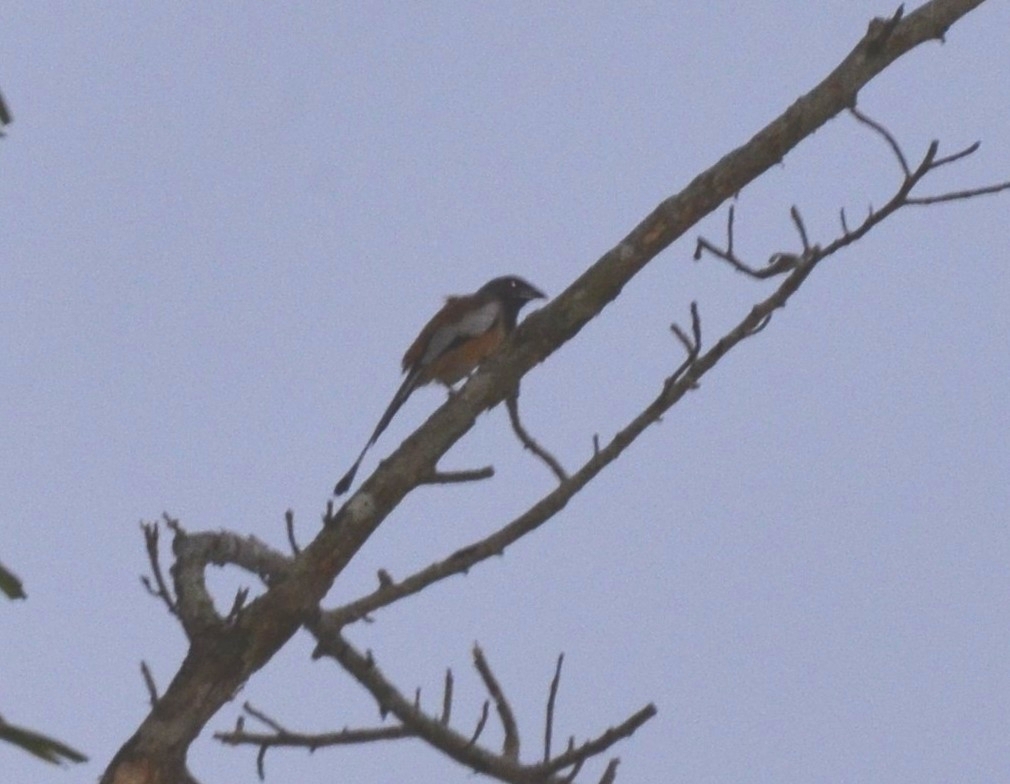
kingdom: Animalia
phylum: Chordata
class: Aves
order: Passeriformes
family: Corvidae
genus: Dendrocitta
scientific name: Dendrocitta vagabunda
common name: Rufous treepie
